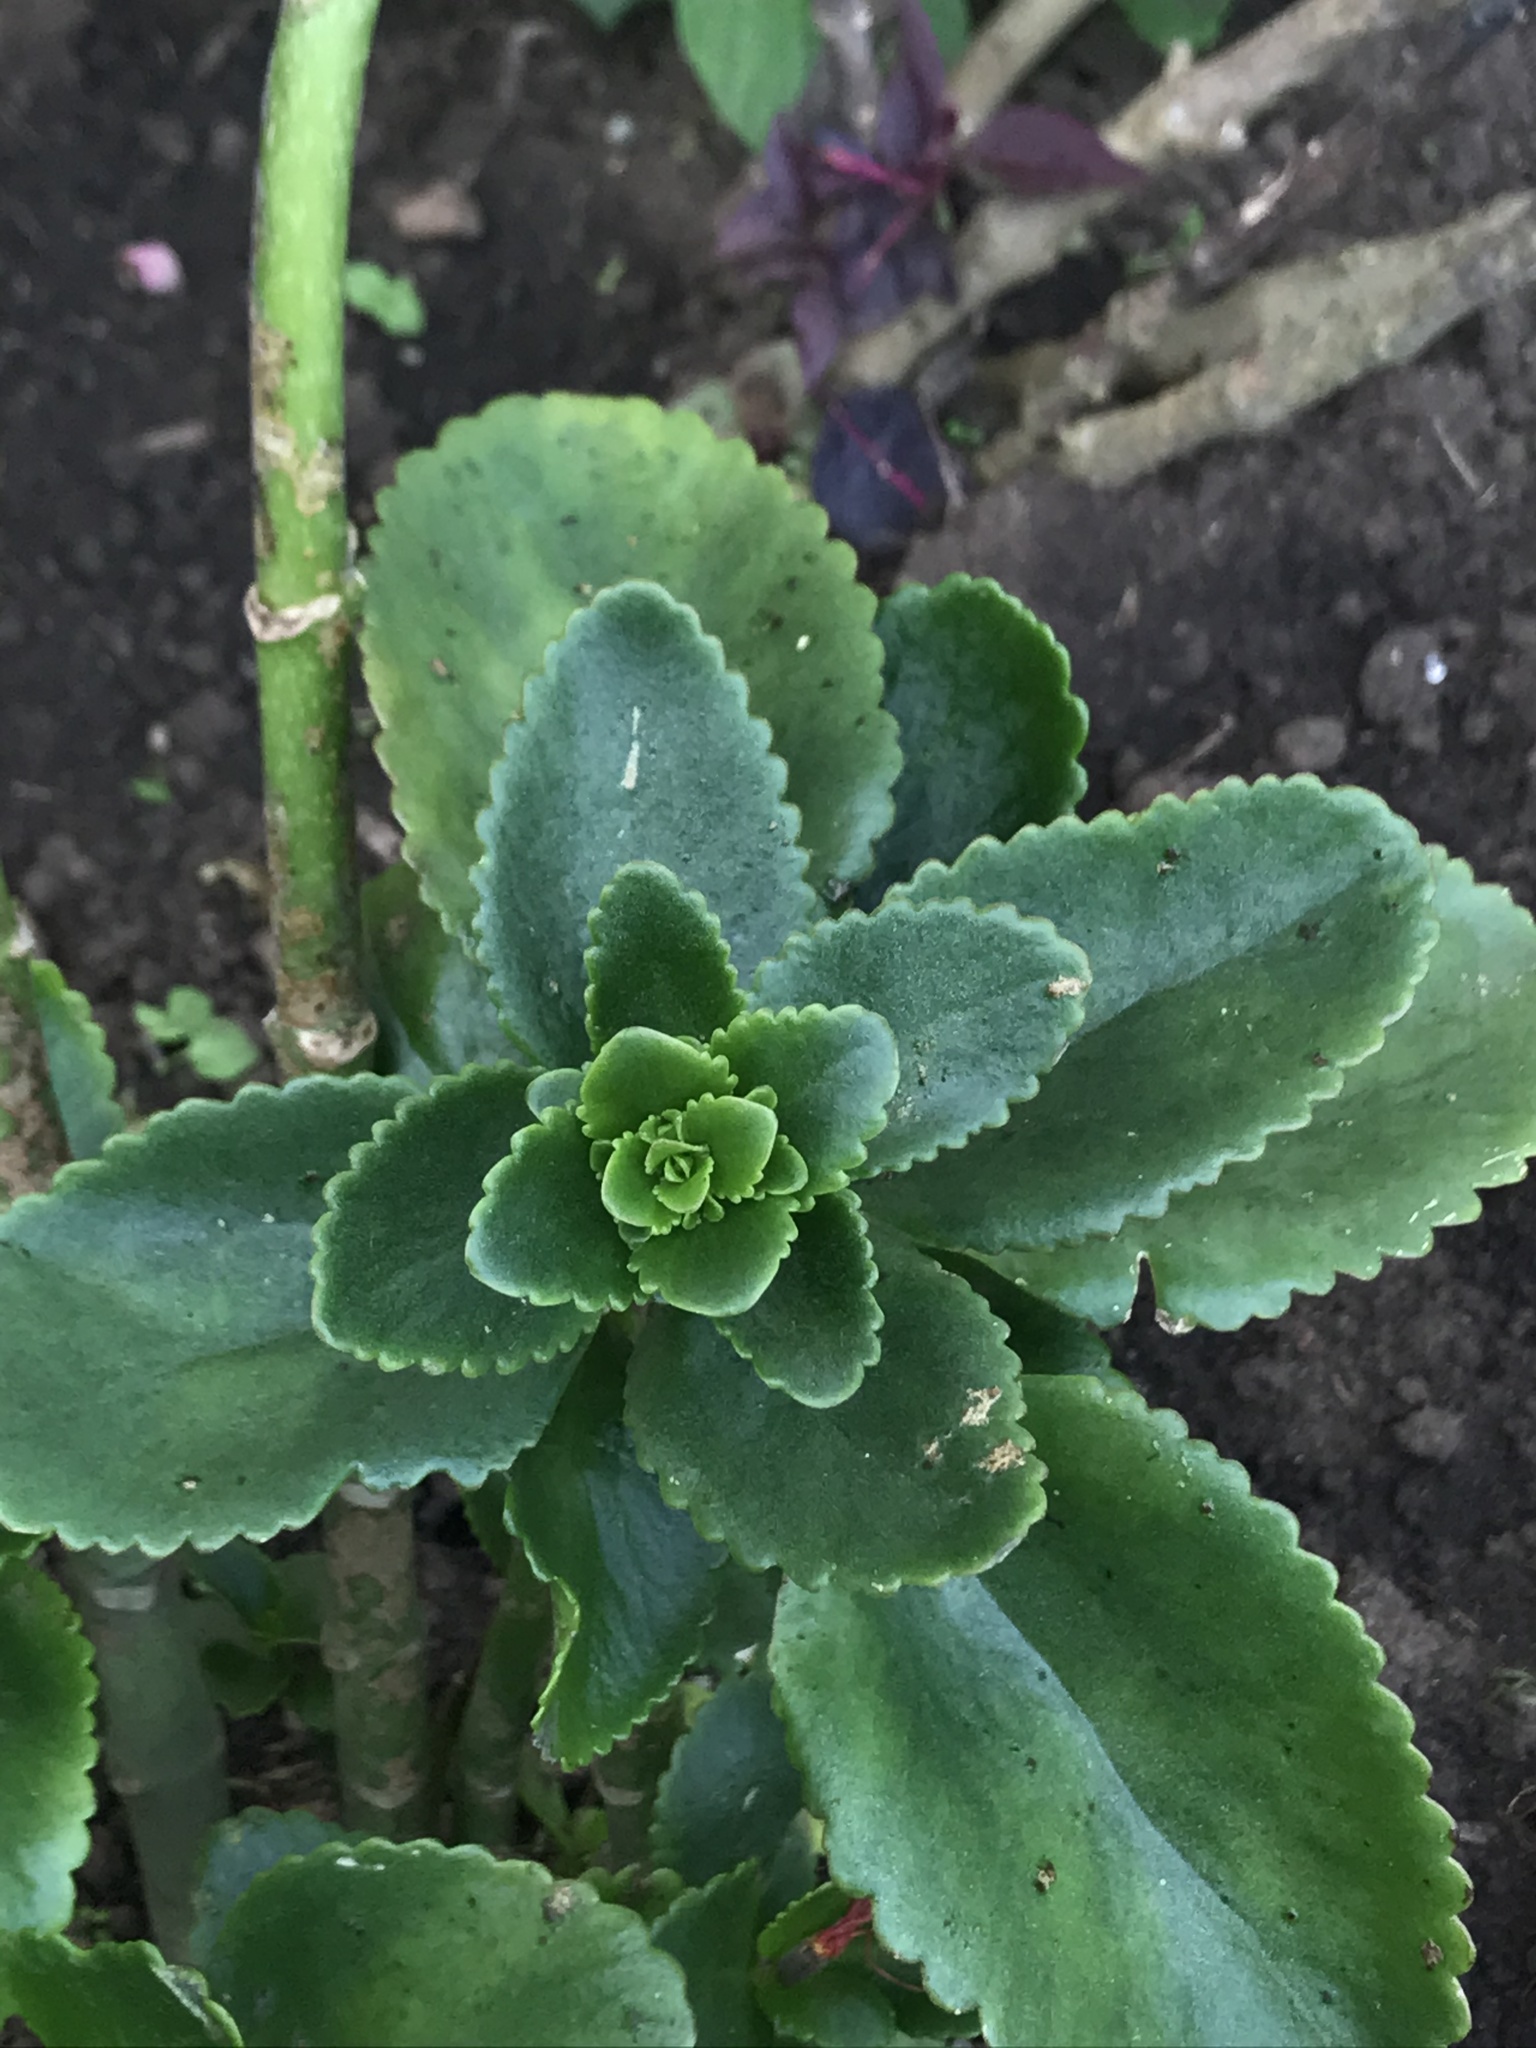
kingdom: Plantae
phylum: Tracheophyta
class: Magnoliopsida
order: Saxifragales
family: Crassulaceae
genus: Kalanchoe
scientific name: Kalanchoe densiflora
